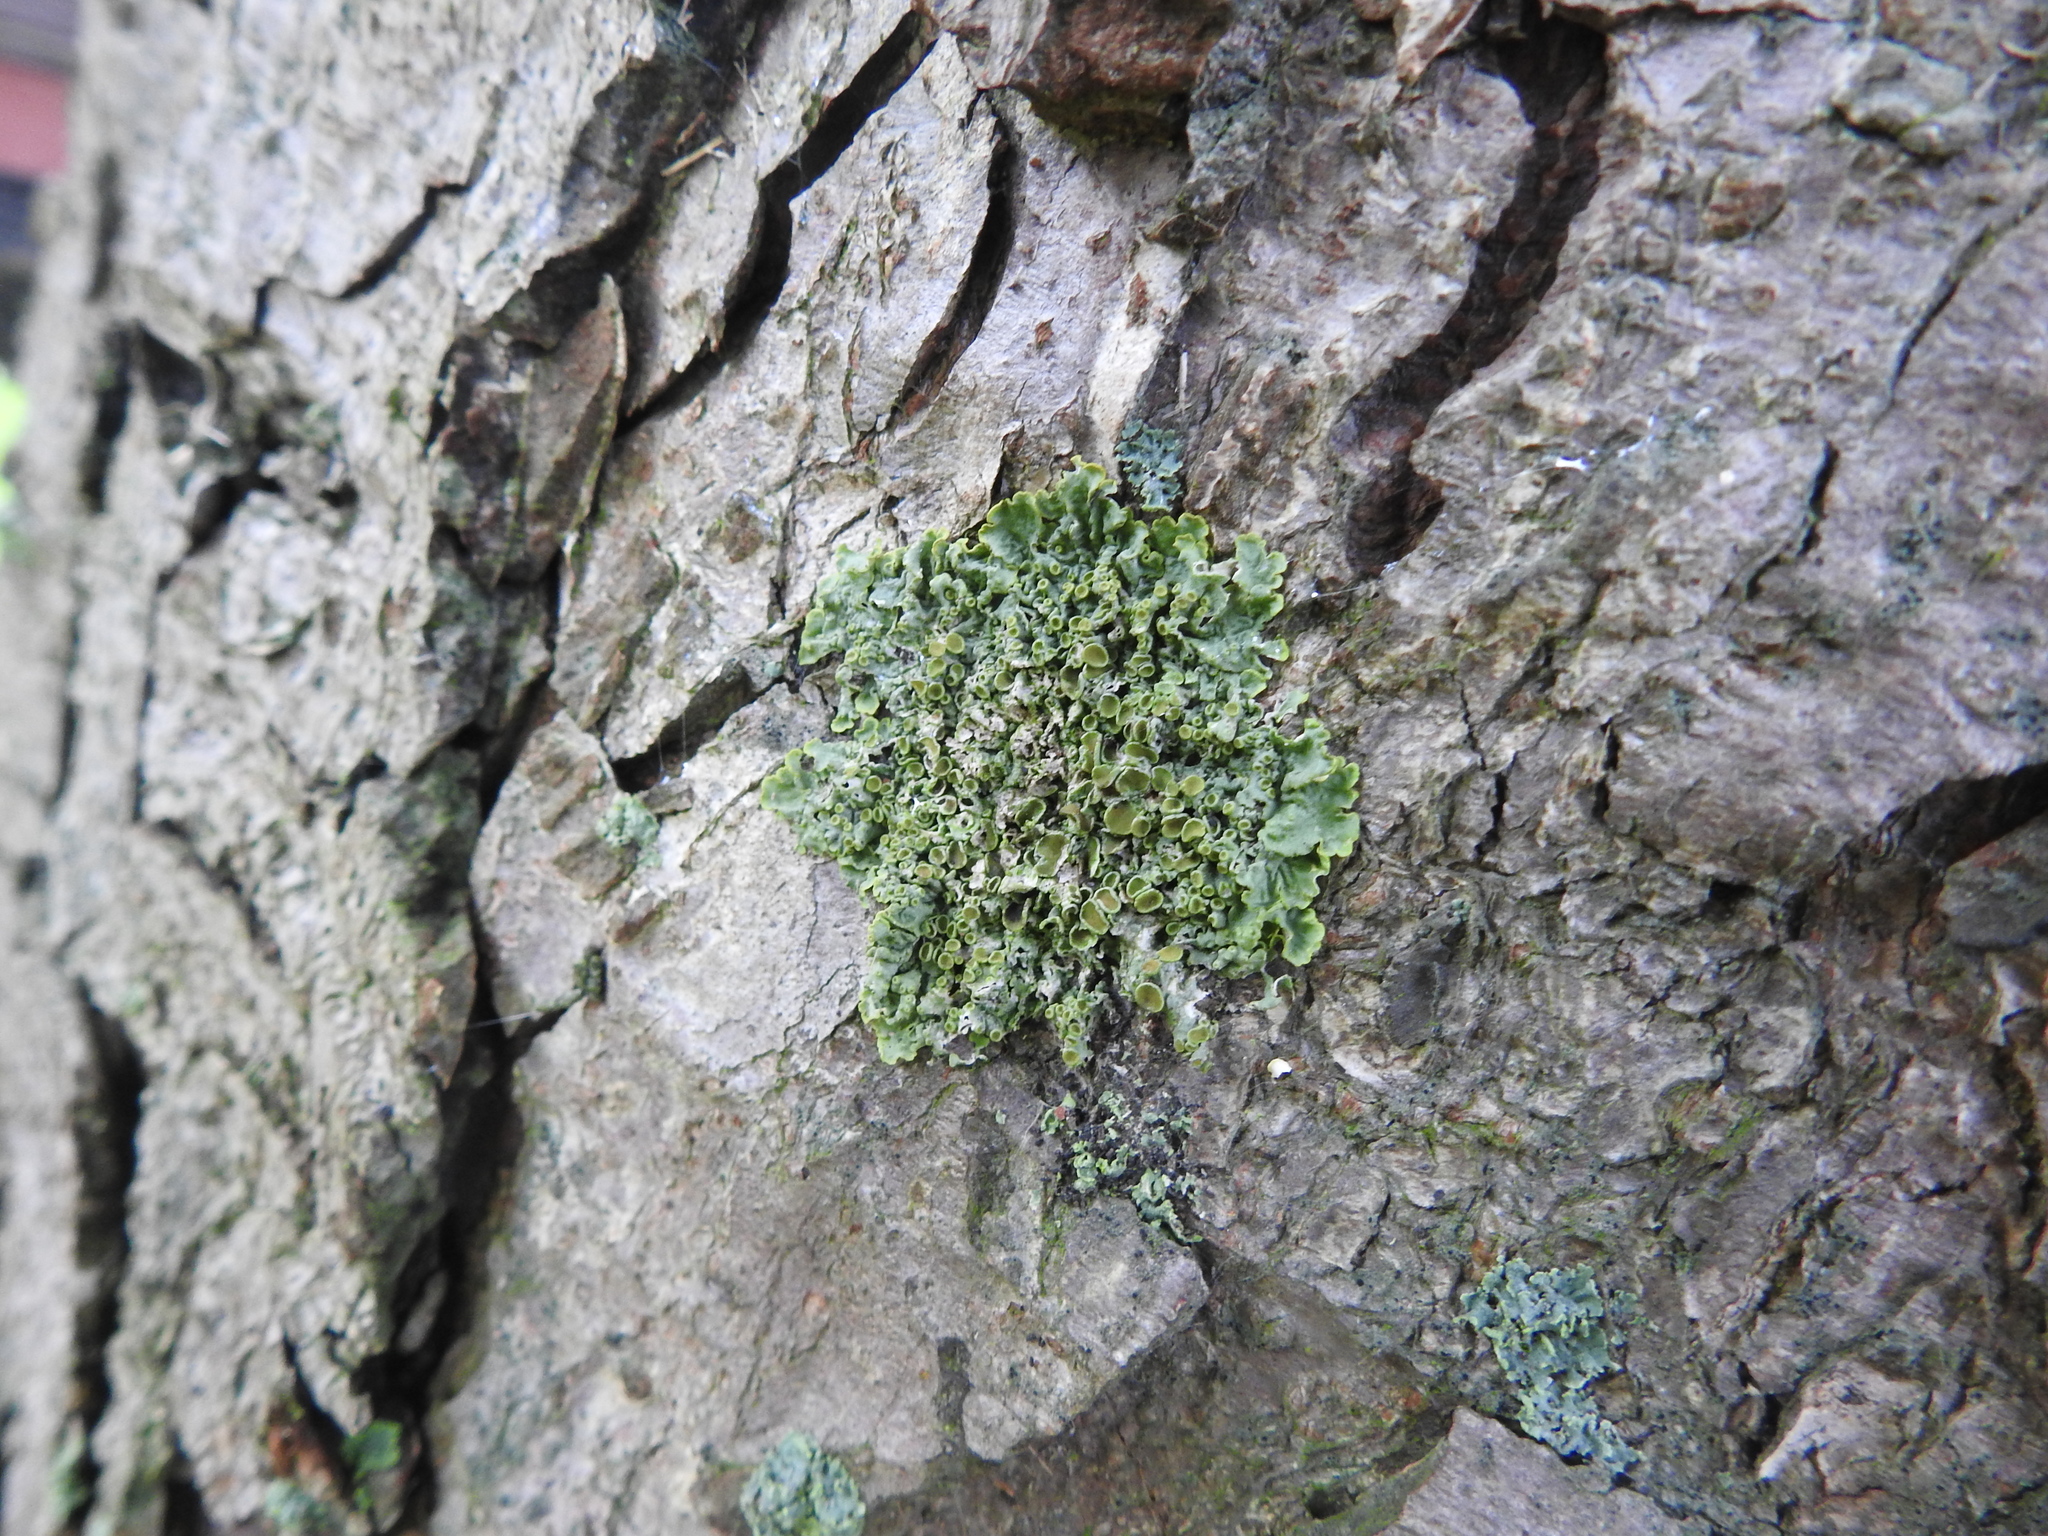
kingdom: Fungi
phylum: Ascomycota
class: Lecanoromycetes
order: Teloschistales
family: Teloschistaceae
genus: Xanthoria
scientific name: Xanthoria parietina
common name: Common orange lichen
